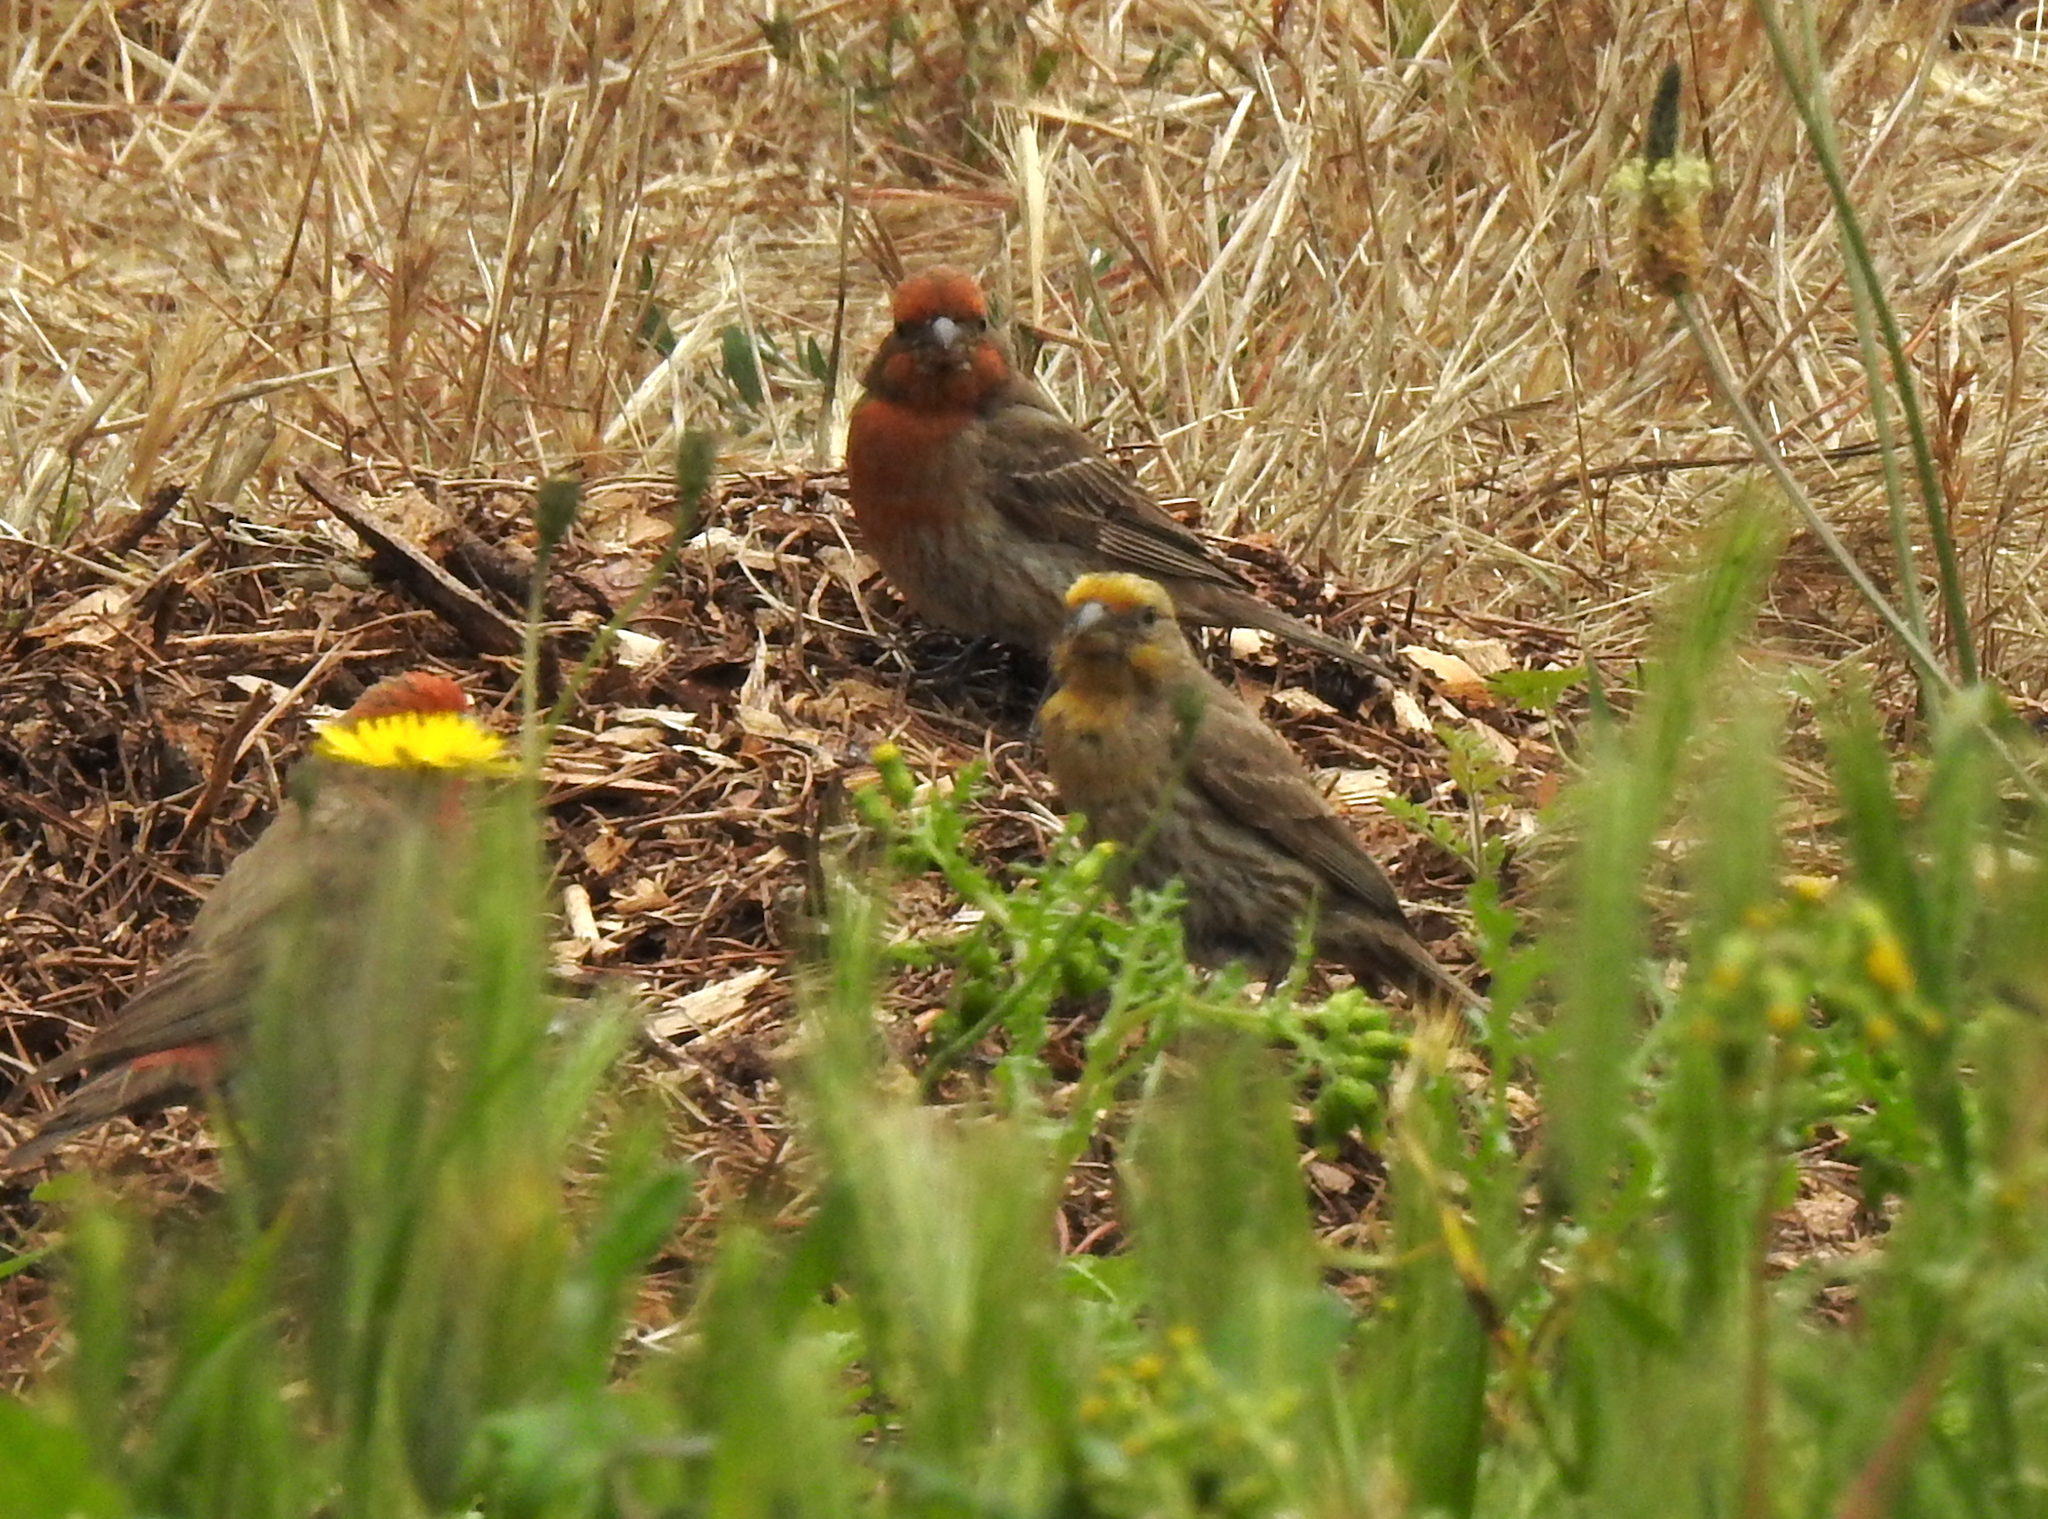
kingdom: Animalia
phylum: Chordata
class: Aves
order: Passeriformes
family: Fringillidae
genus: Haemorhous
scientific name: Haemorhous mexicanus
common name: House finch
